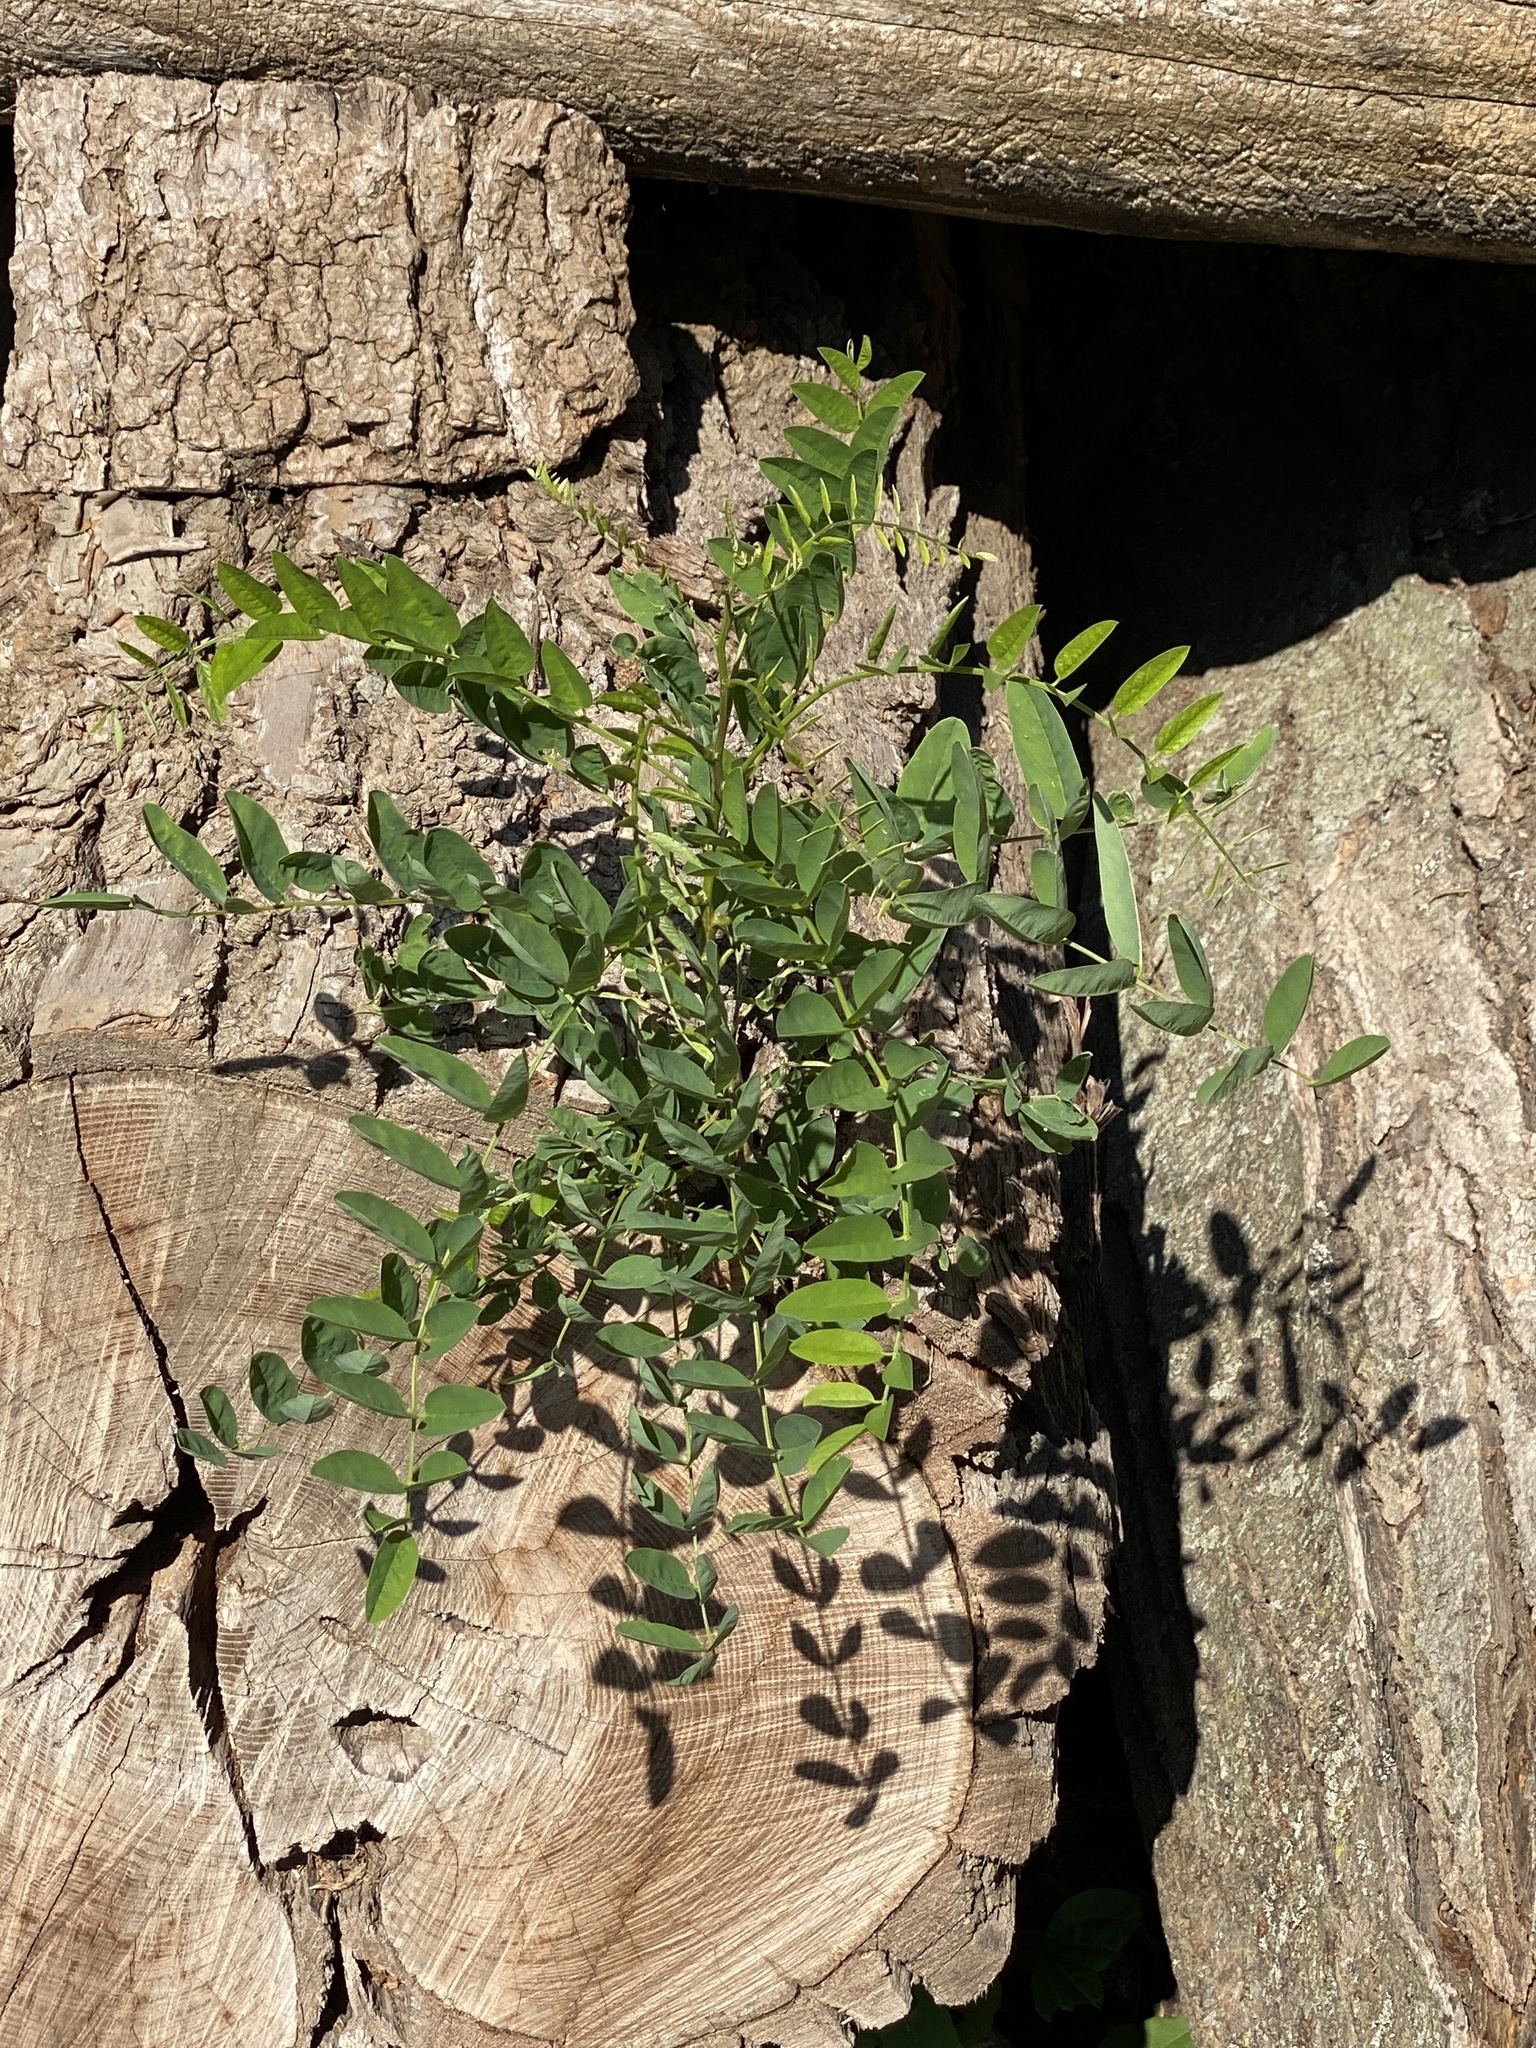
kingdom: Plantae
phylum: Tracheophyta
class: Magnoliopsida
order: Fabales
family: Fabaceae
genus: Robinia
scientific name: Robinia pseudoacacia
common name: Black locust
